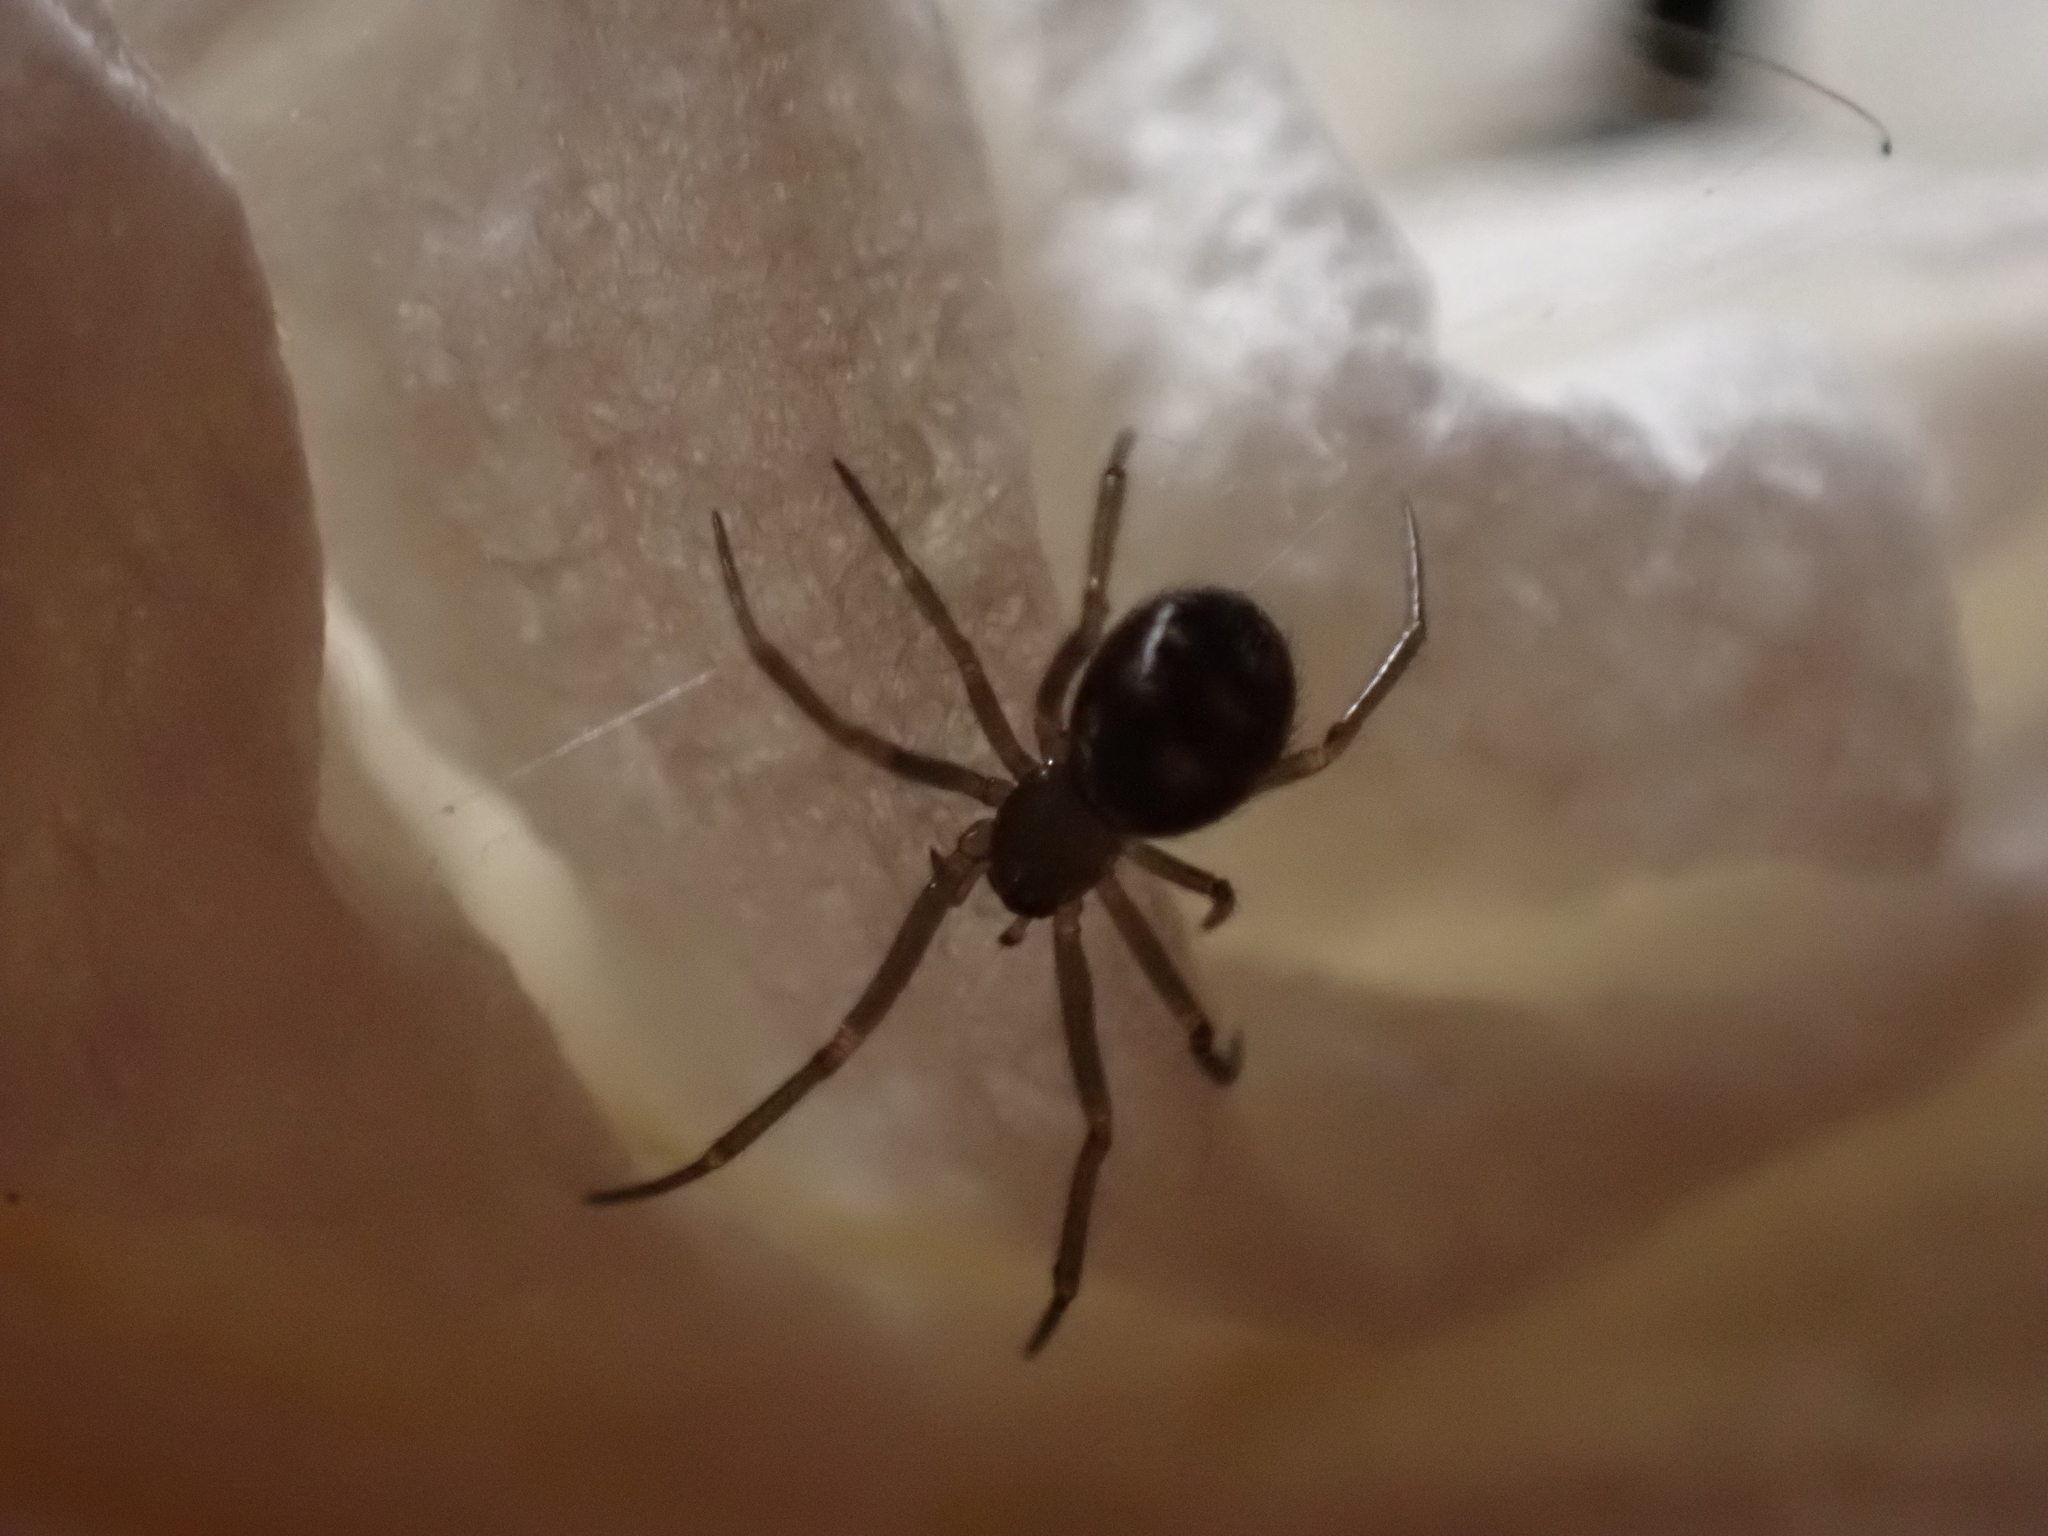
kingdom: Animalia
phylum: Arthropoda
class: Arachnida
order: Araneae
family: Theridiidae
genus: Steatoda
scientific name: Steatoda grossa
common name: False black widow
